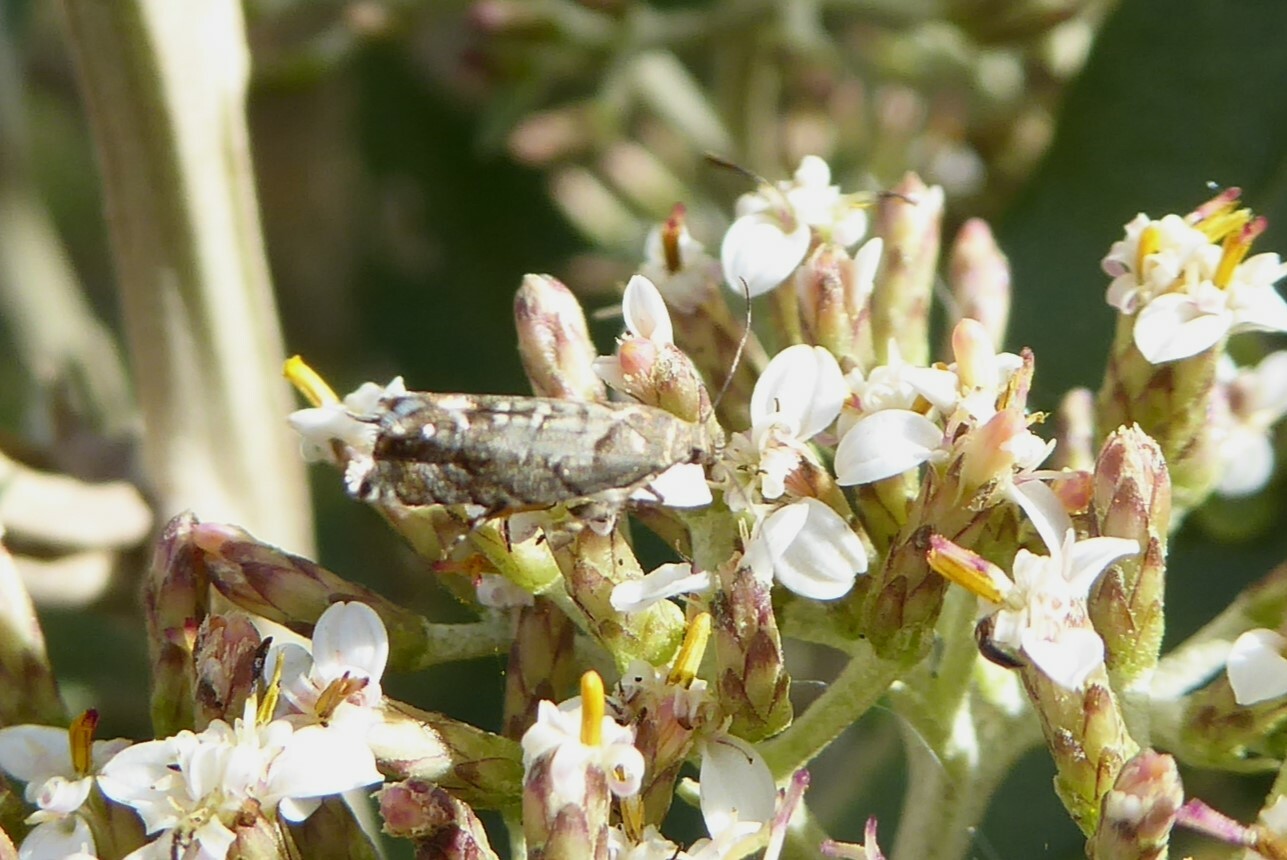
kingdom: Animalia
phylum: Arthropoda
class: Insecta
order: Lepidoptera
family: Glyphipterigidae
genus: Glyphipterix
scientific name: Glyphipterix nephoptera
